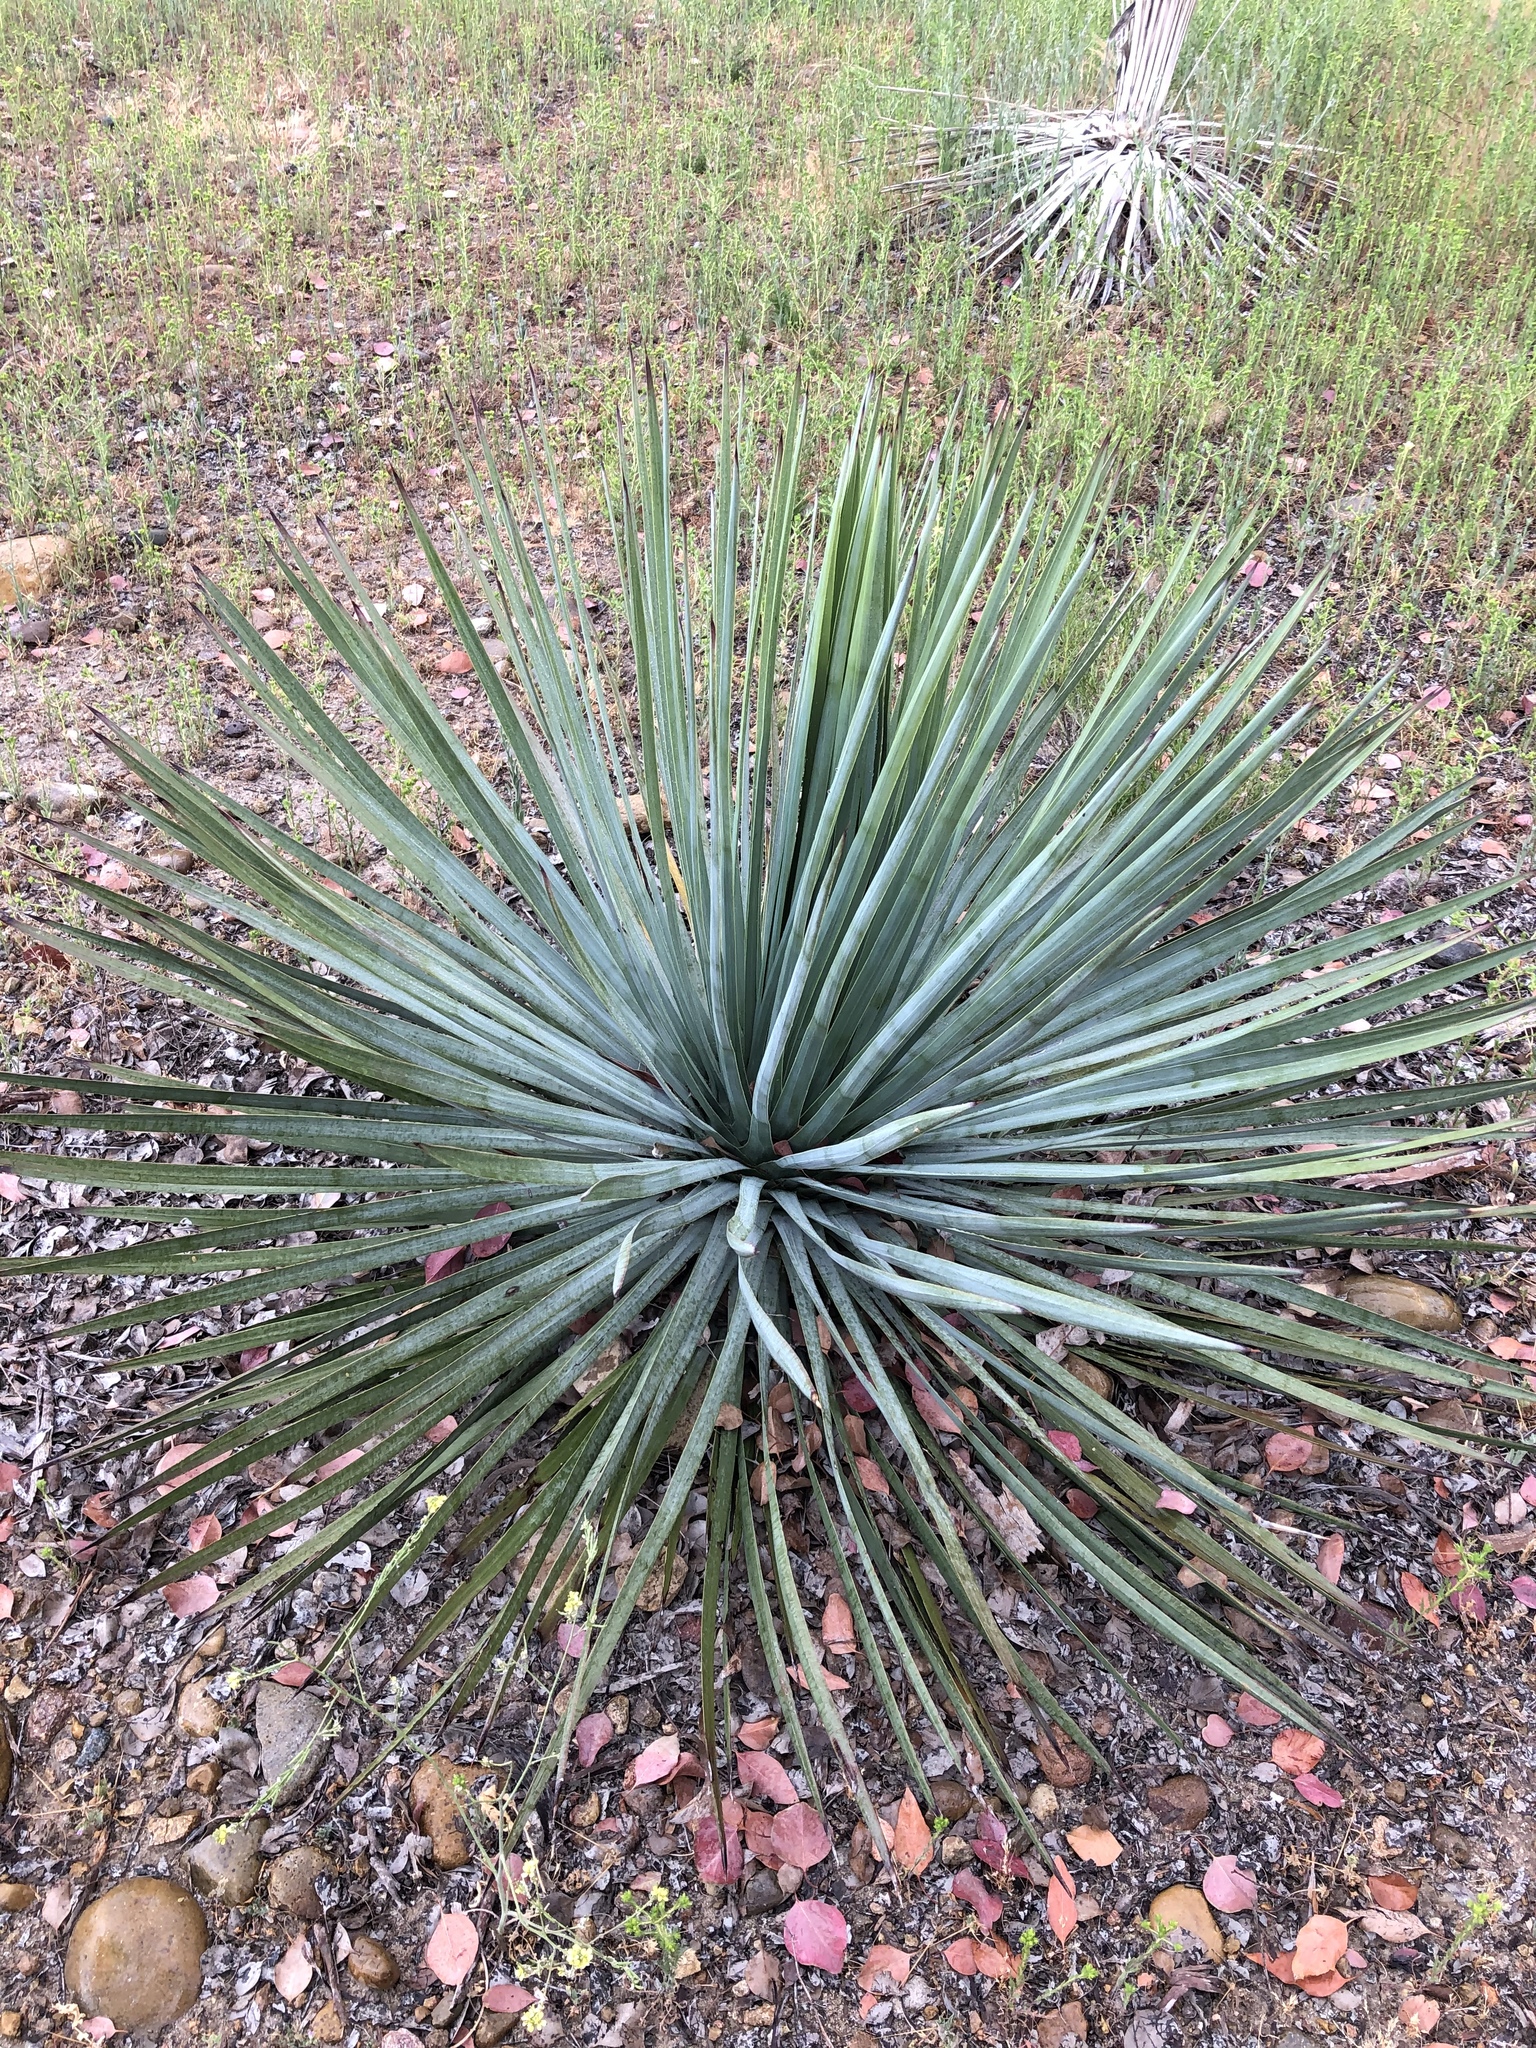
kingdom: Plantae
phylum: Tracheophyta
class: Liliopsida
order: Asparagales
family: Asparagaceae
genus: Hesperoyucca
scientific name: Hesperoyucca whipplei
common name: Our lord's-candle
